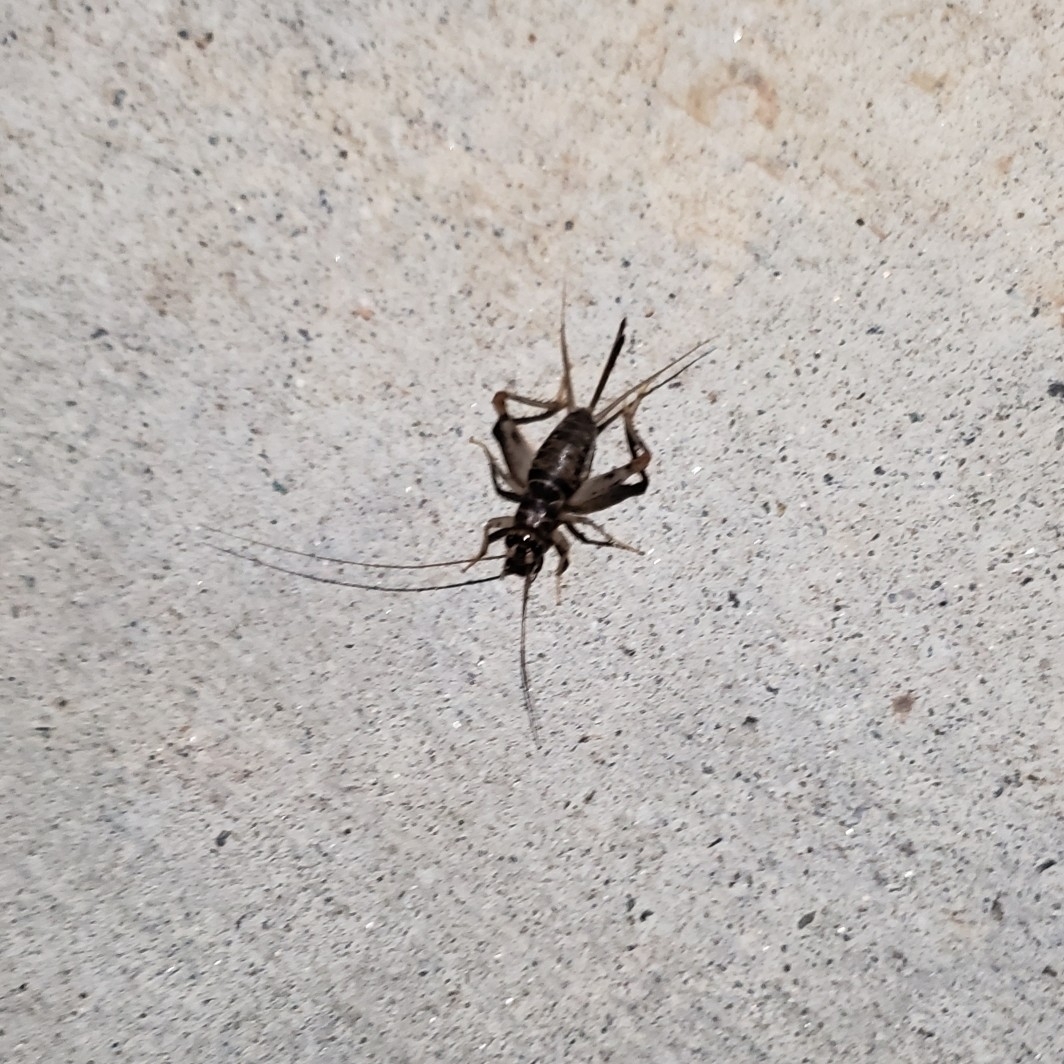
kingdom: Animalia
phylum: Arthropoda
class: Insecta
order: Orthoptera
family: Gryllidae
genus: Gryllodes
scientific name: Gryllodes sigillatus
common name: Tropical house cricket
